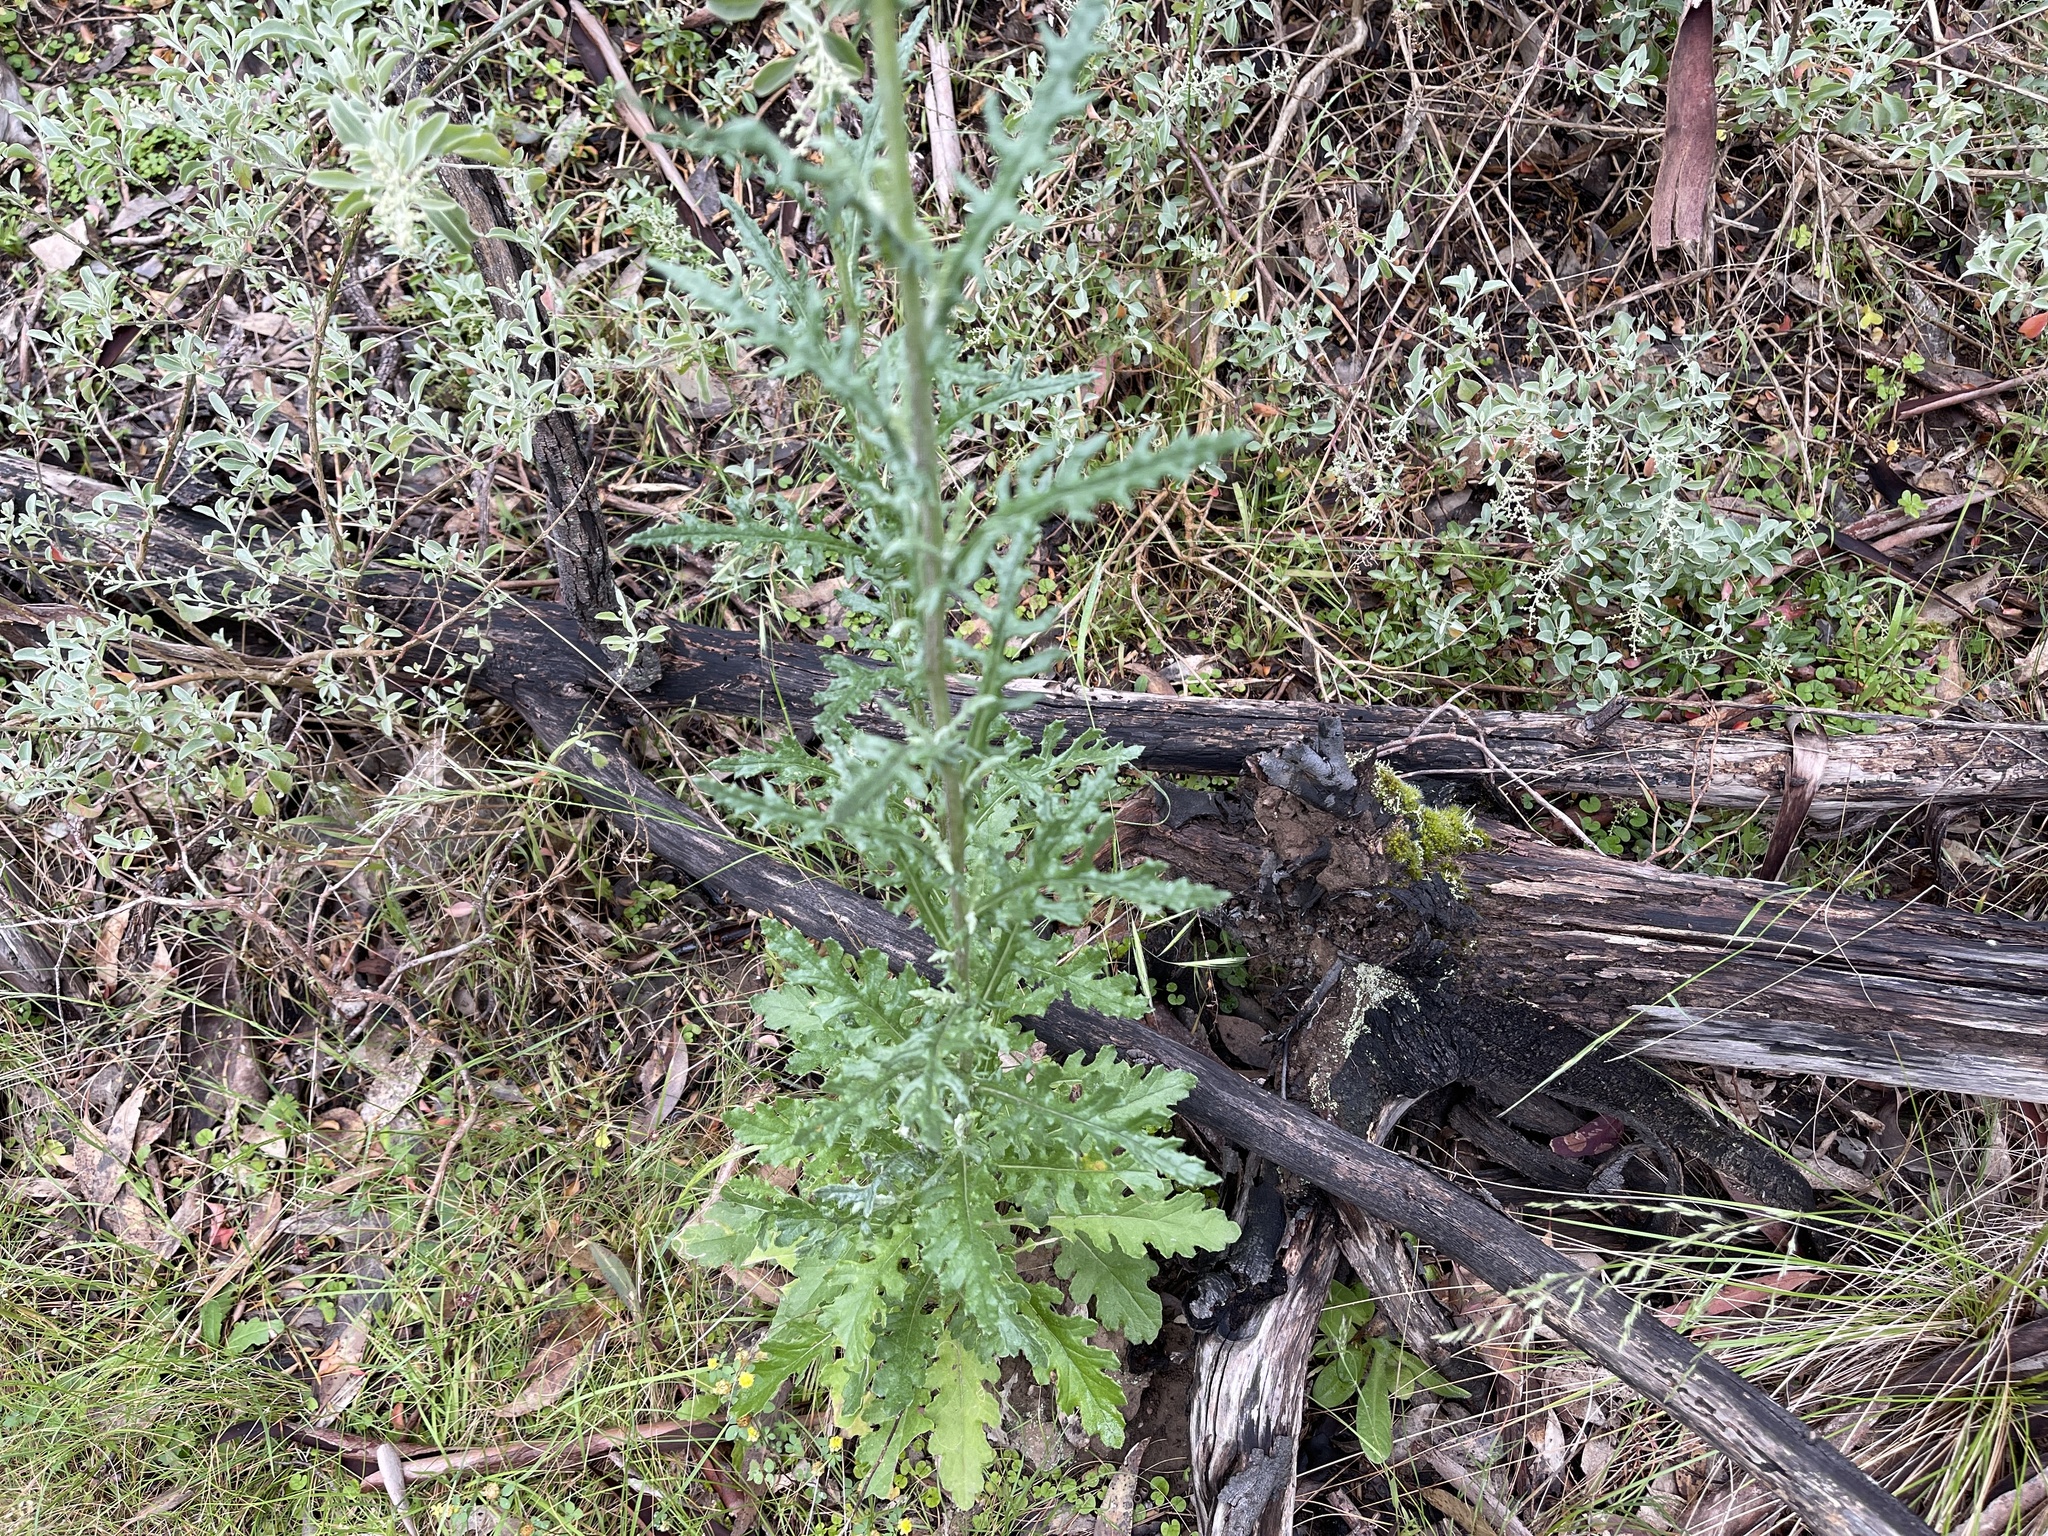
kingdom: Plantae
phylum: Tracheophyta
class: Magnoliopsida
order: Asterales
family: Asteraceae
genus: Senecio
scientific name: Senecio glomeratus
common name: Cutleaf burnweed
